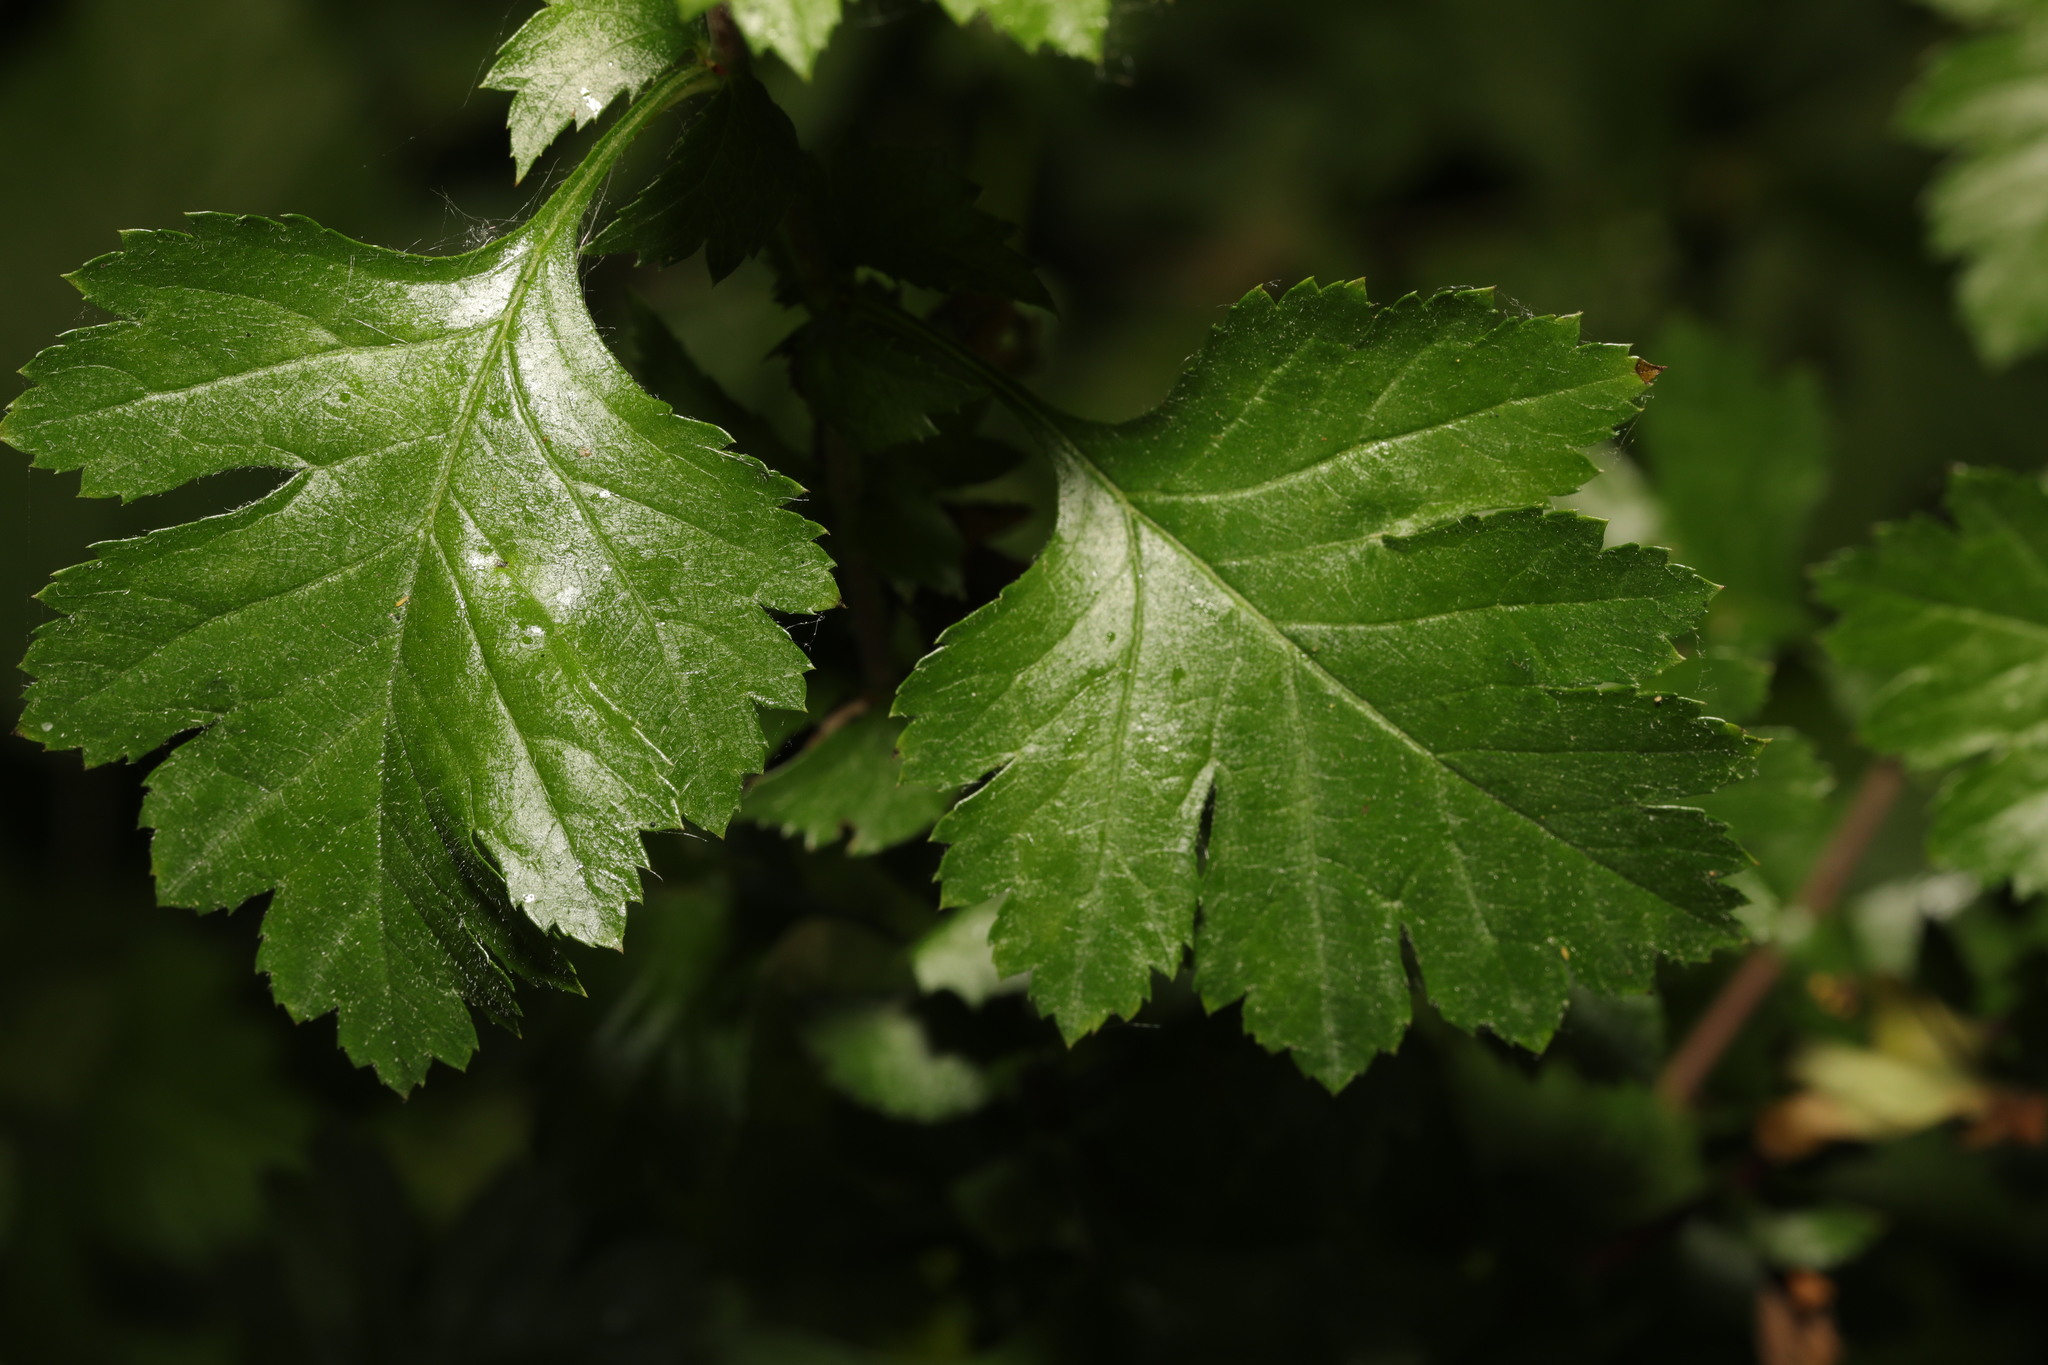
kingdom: Plantae
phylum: Tracheophyta
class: Magnoliopsida
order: Rosales
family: Rosaceae
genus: Crataegus
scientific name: Crataegus monogyna
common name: Hawthorn
